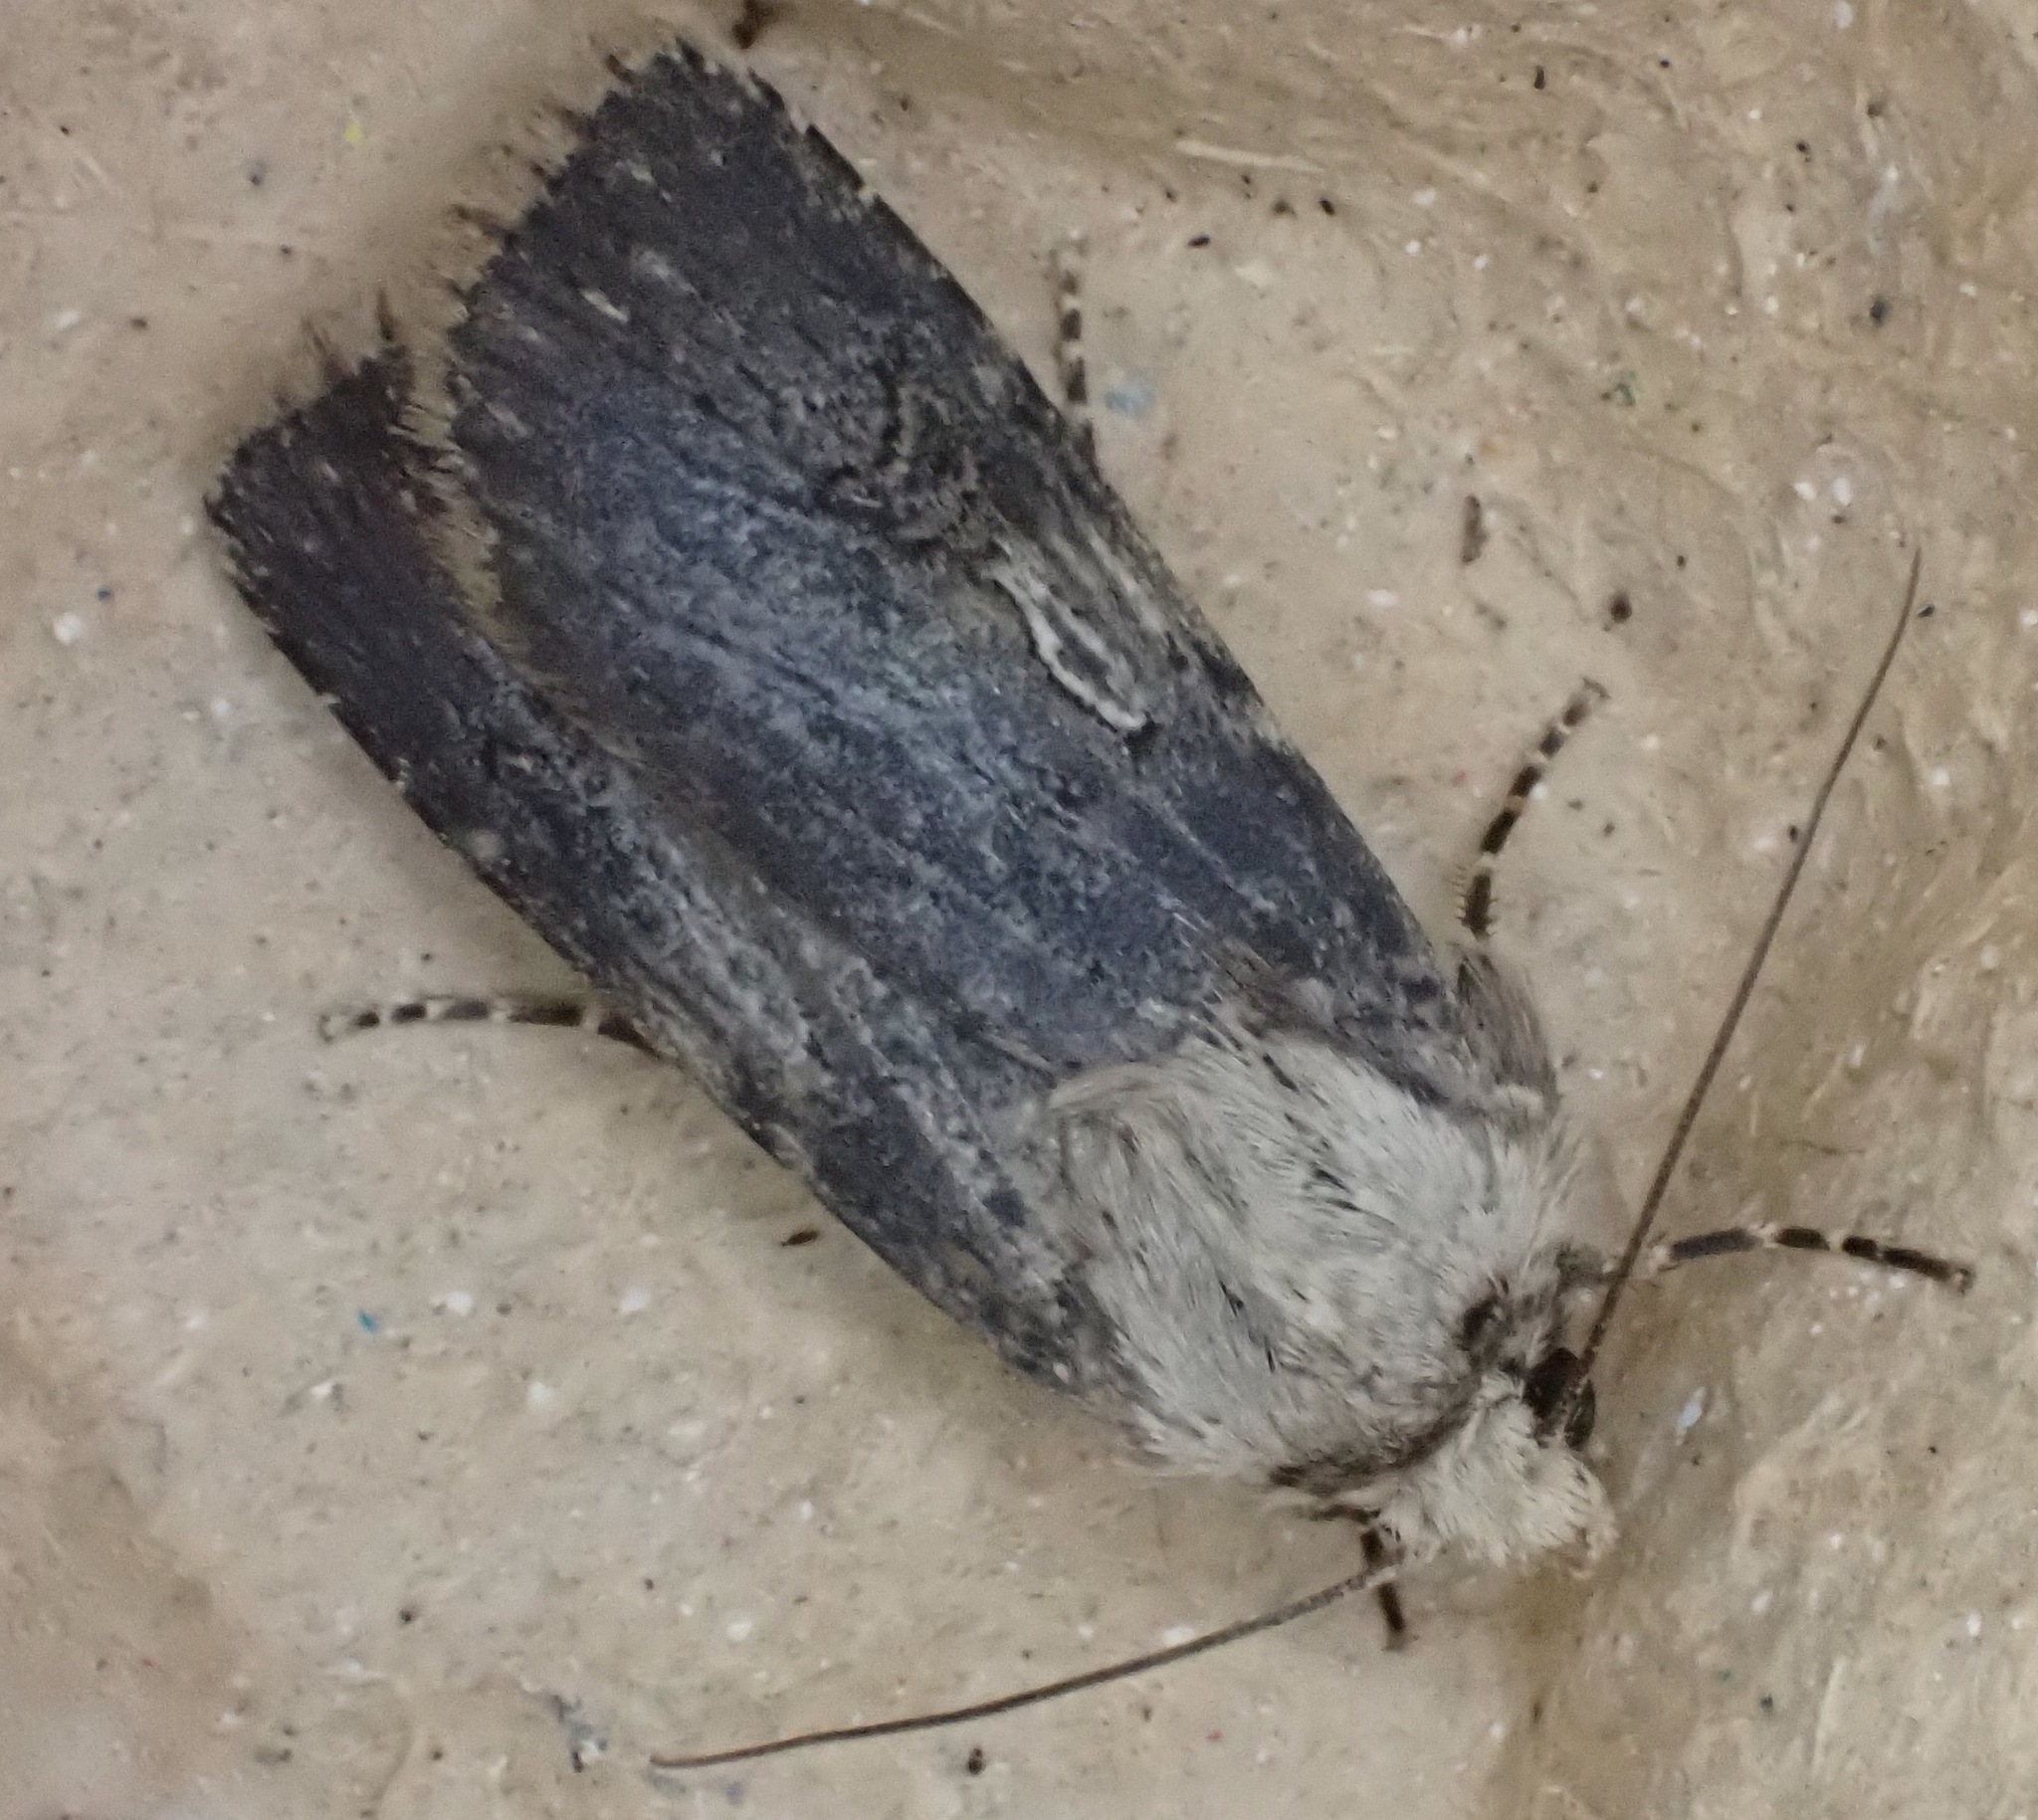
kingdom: Animalia
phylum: Arthropoda
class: Insecta
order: Lepidoptera
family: Noctuidae
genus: Agrotis
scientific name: Agrotis puta
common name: Shuttle-shaped dart
